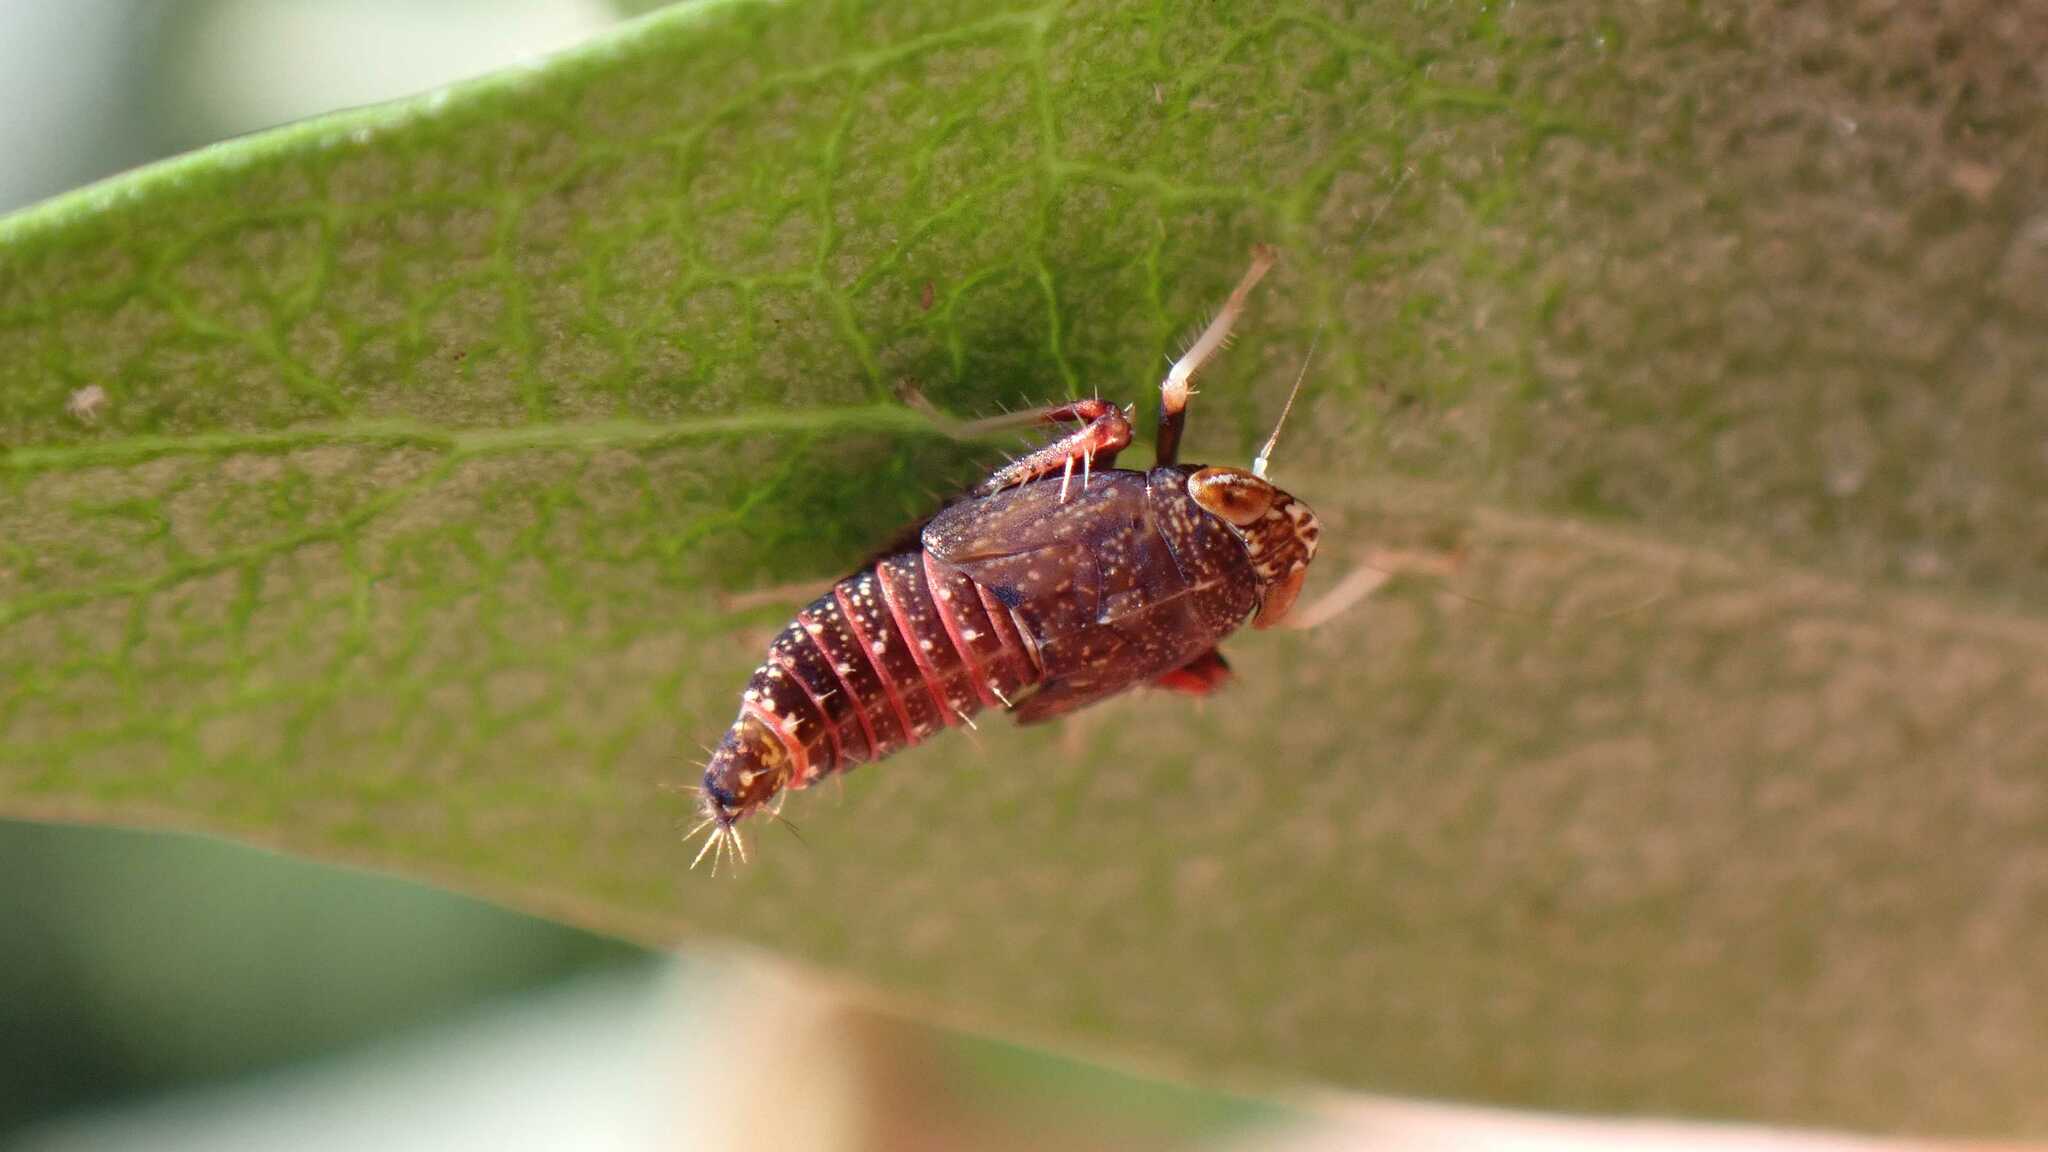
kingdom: Animalia
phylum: Arthropoda
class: Insecta
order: Hemiptera
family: Cicadellidae
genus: Orientus
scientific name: Orientus ishidae
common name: Japanese leafhopper
